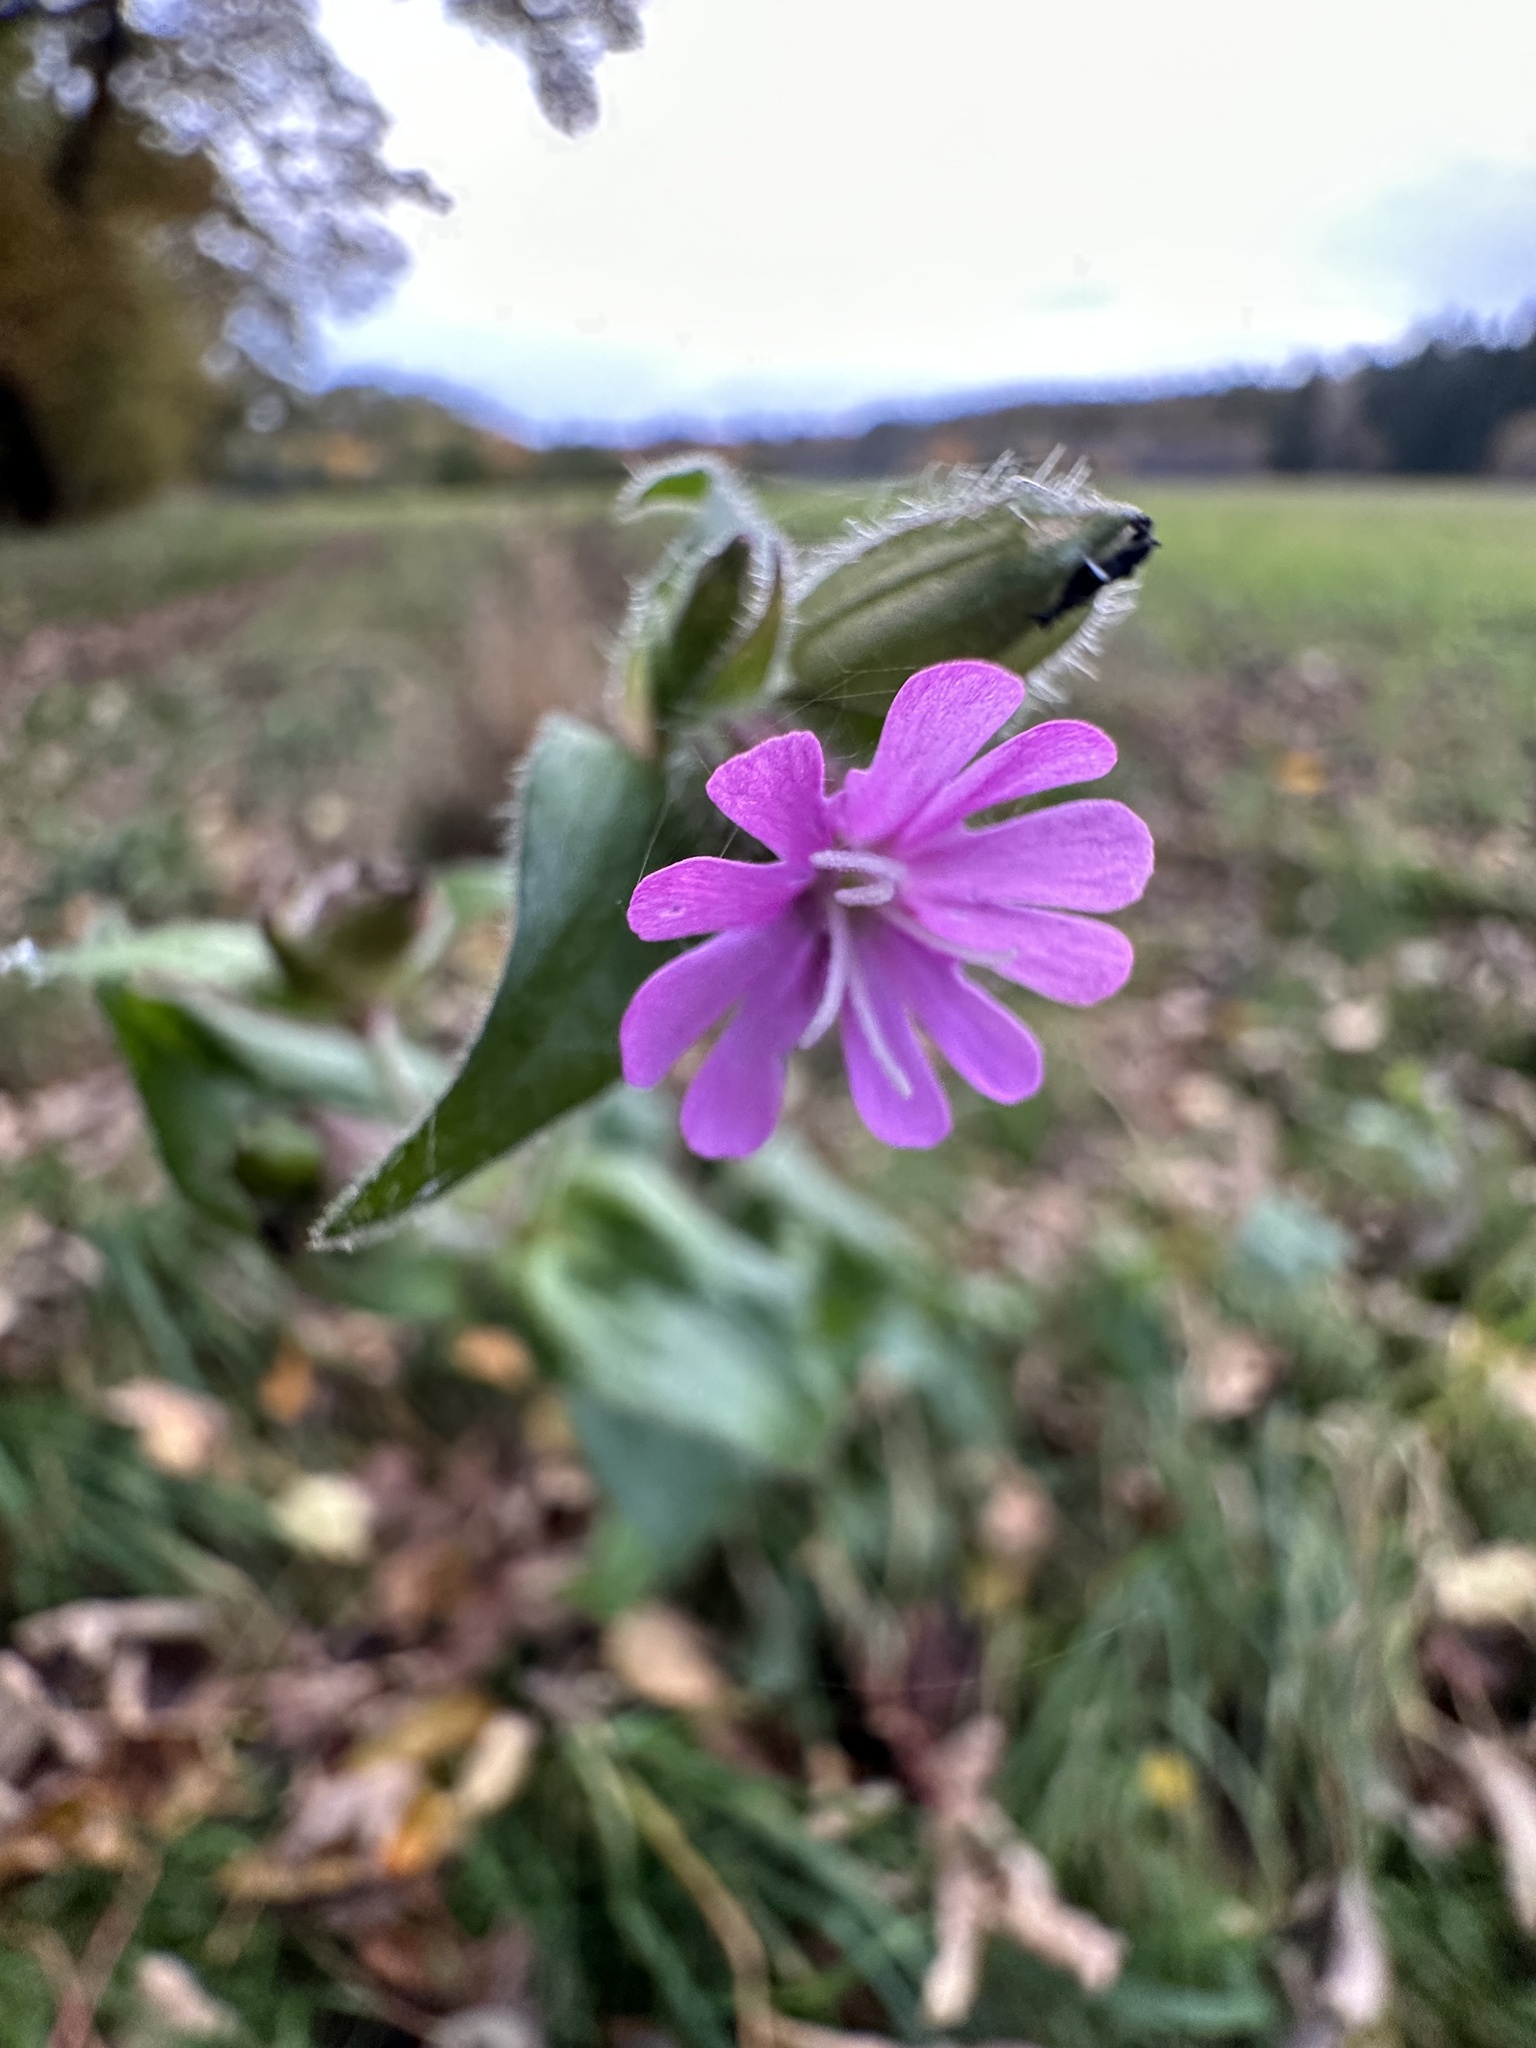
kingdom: Plantae
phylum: Tracheophyta
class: Magnoliopsida
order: Caryophyllales
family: Caryophyllaceae
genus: Silene
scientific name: Silene dioica
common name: Red campion
